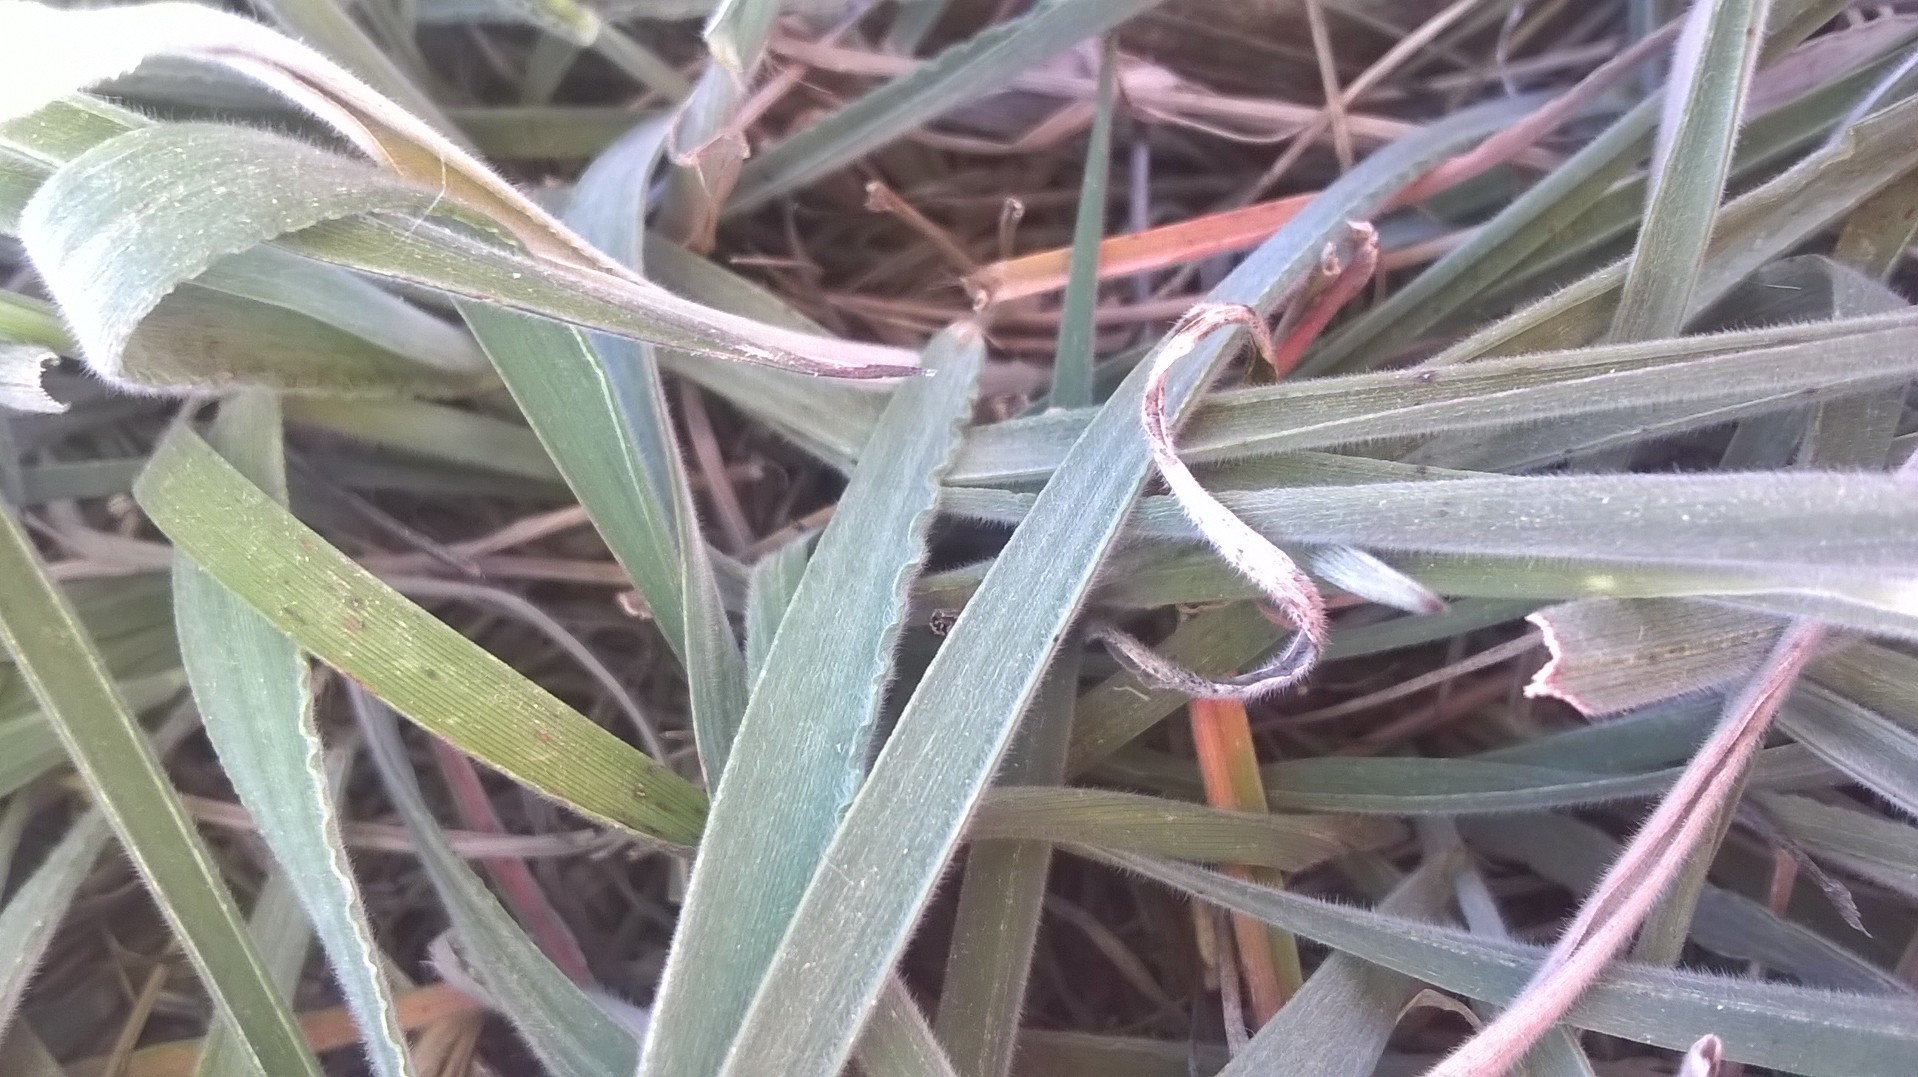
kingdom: Plantae
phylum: Tracheophyta
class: Liliopsida
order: Poales
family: Poaceae
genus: Ehrharta
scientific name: Ehrharta eburnea
